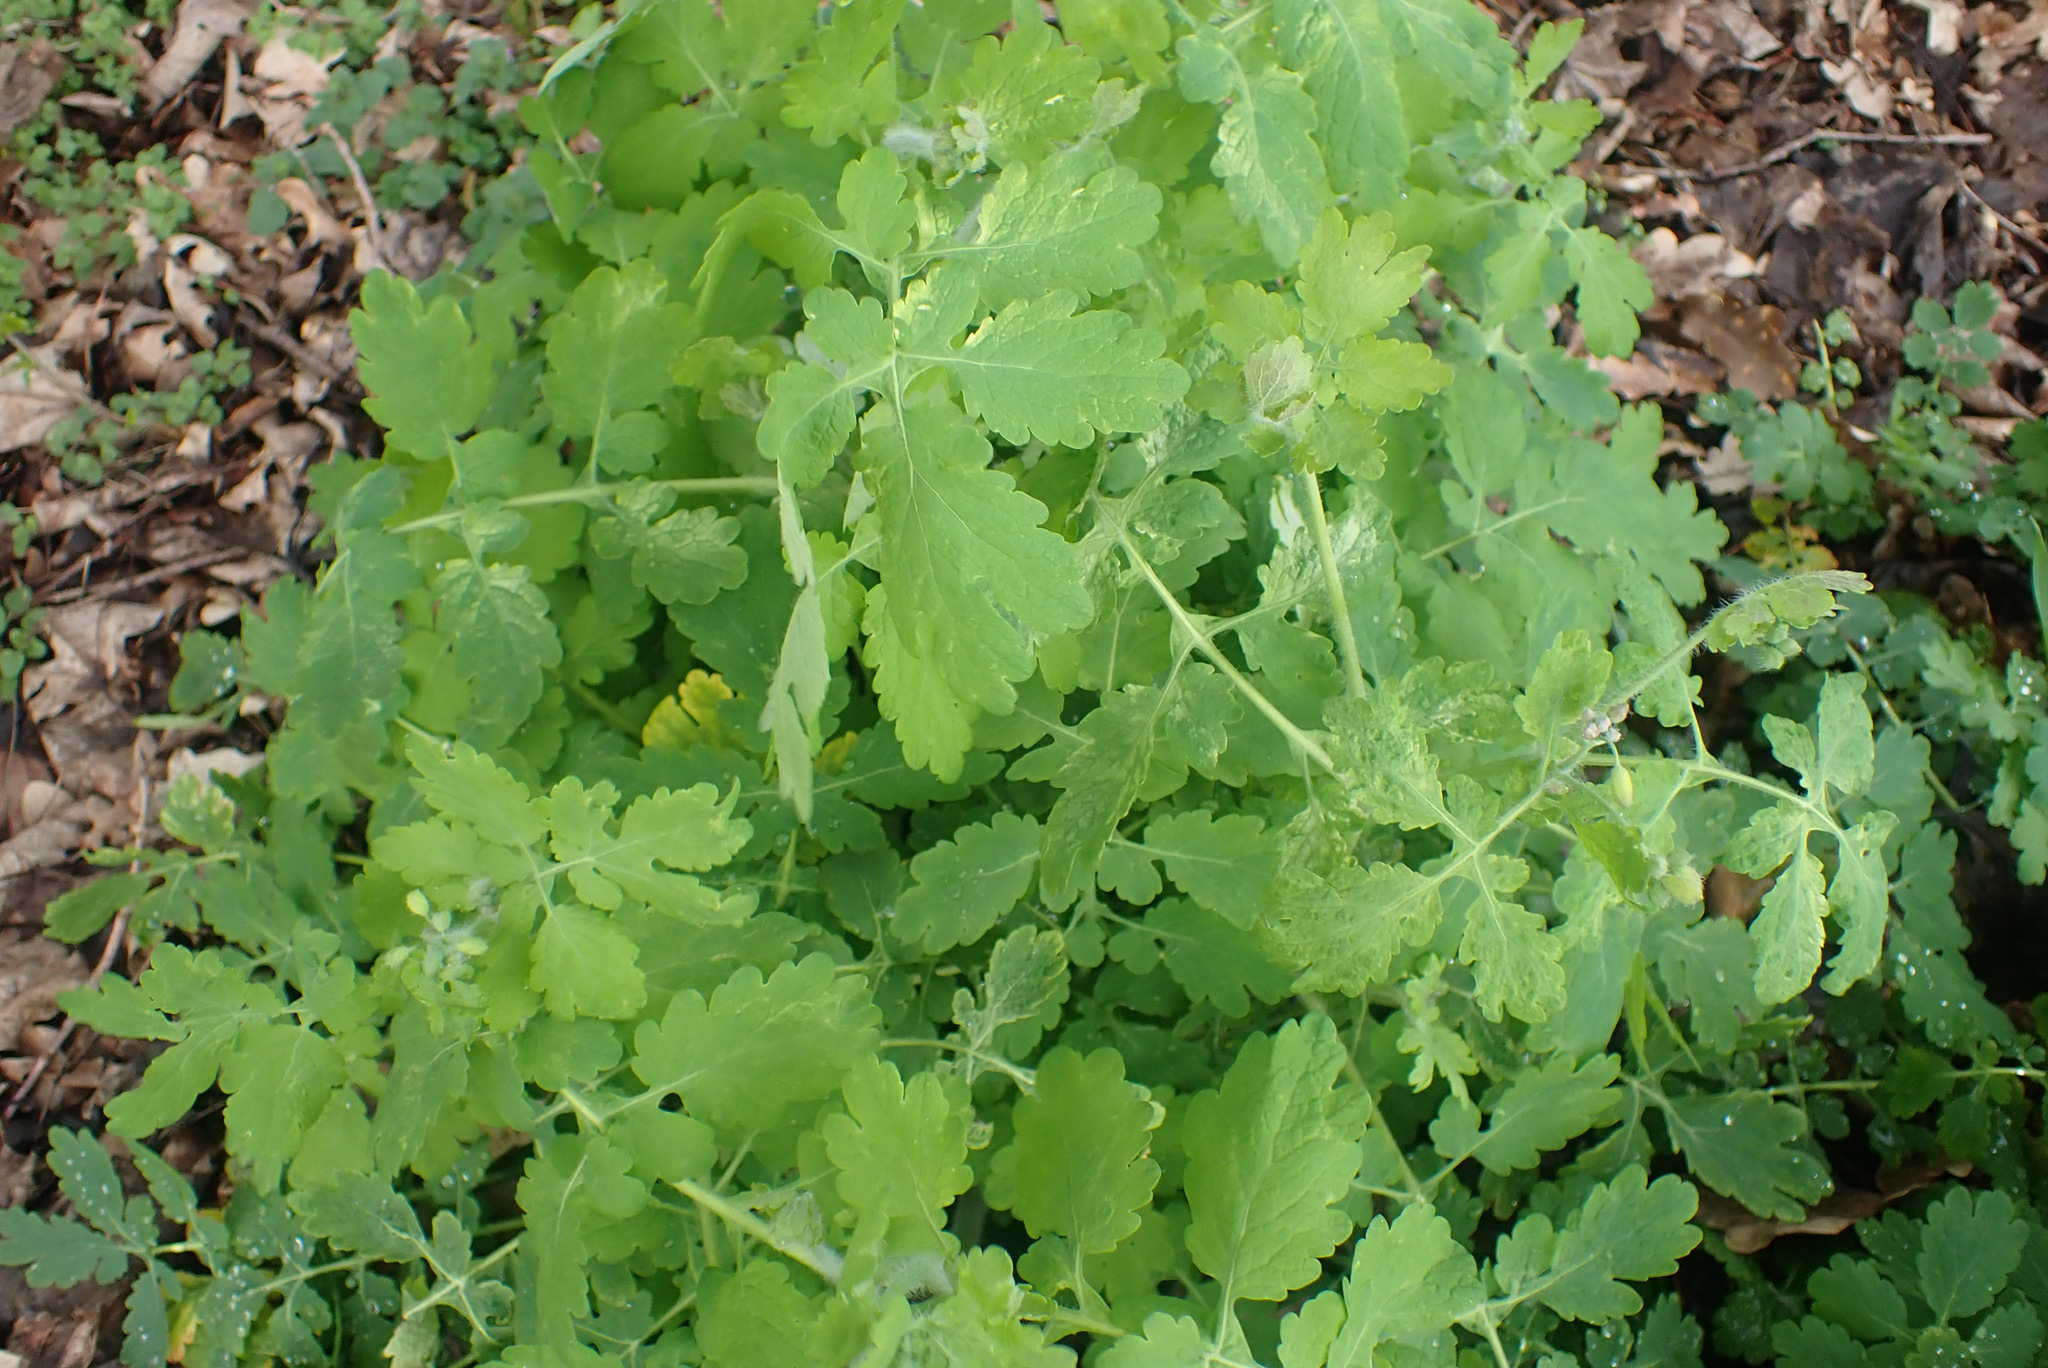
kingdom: Plantae
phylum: Tracheophyta
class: Magnoliopsida
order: Ranunculales
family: Papaveraceae
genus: Chelidonium
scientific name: Chelidonium majus
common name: Greater celandine
